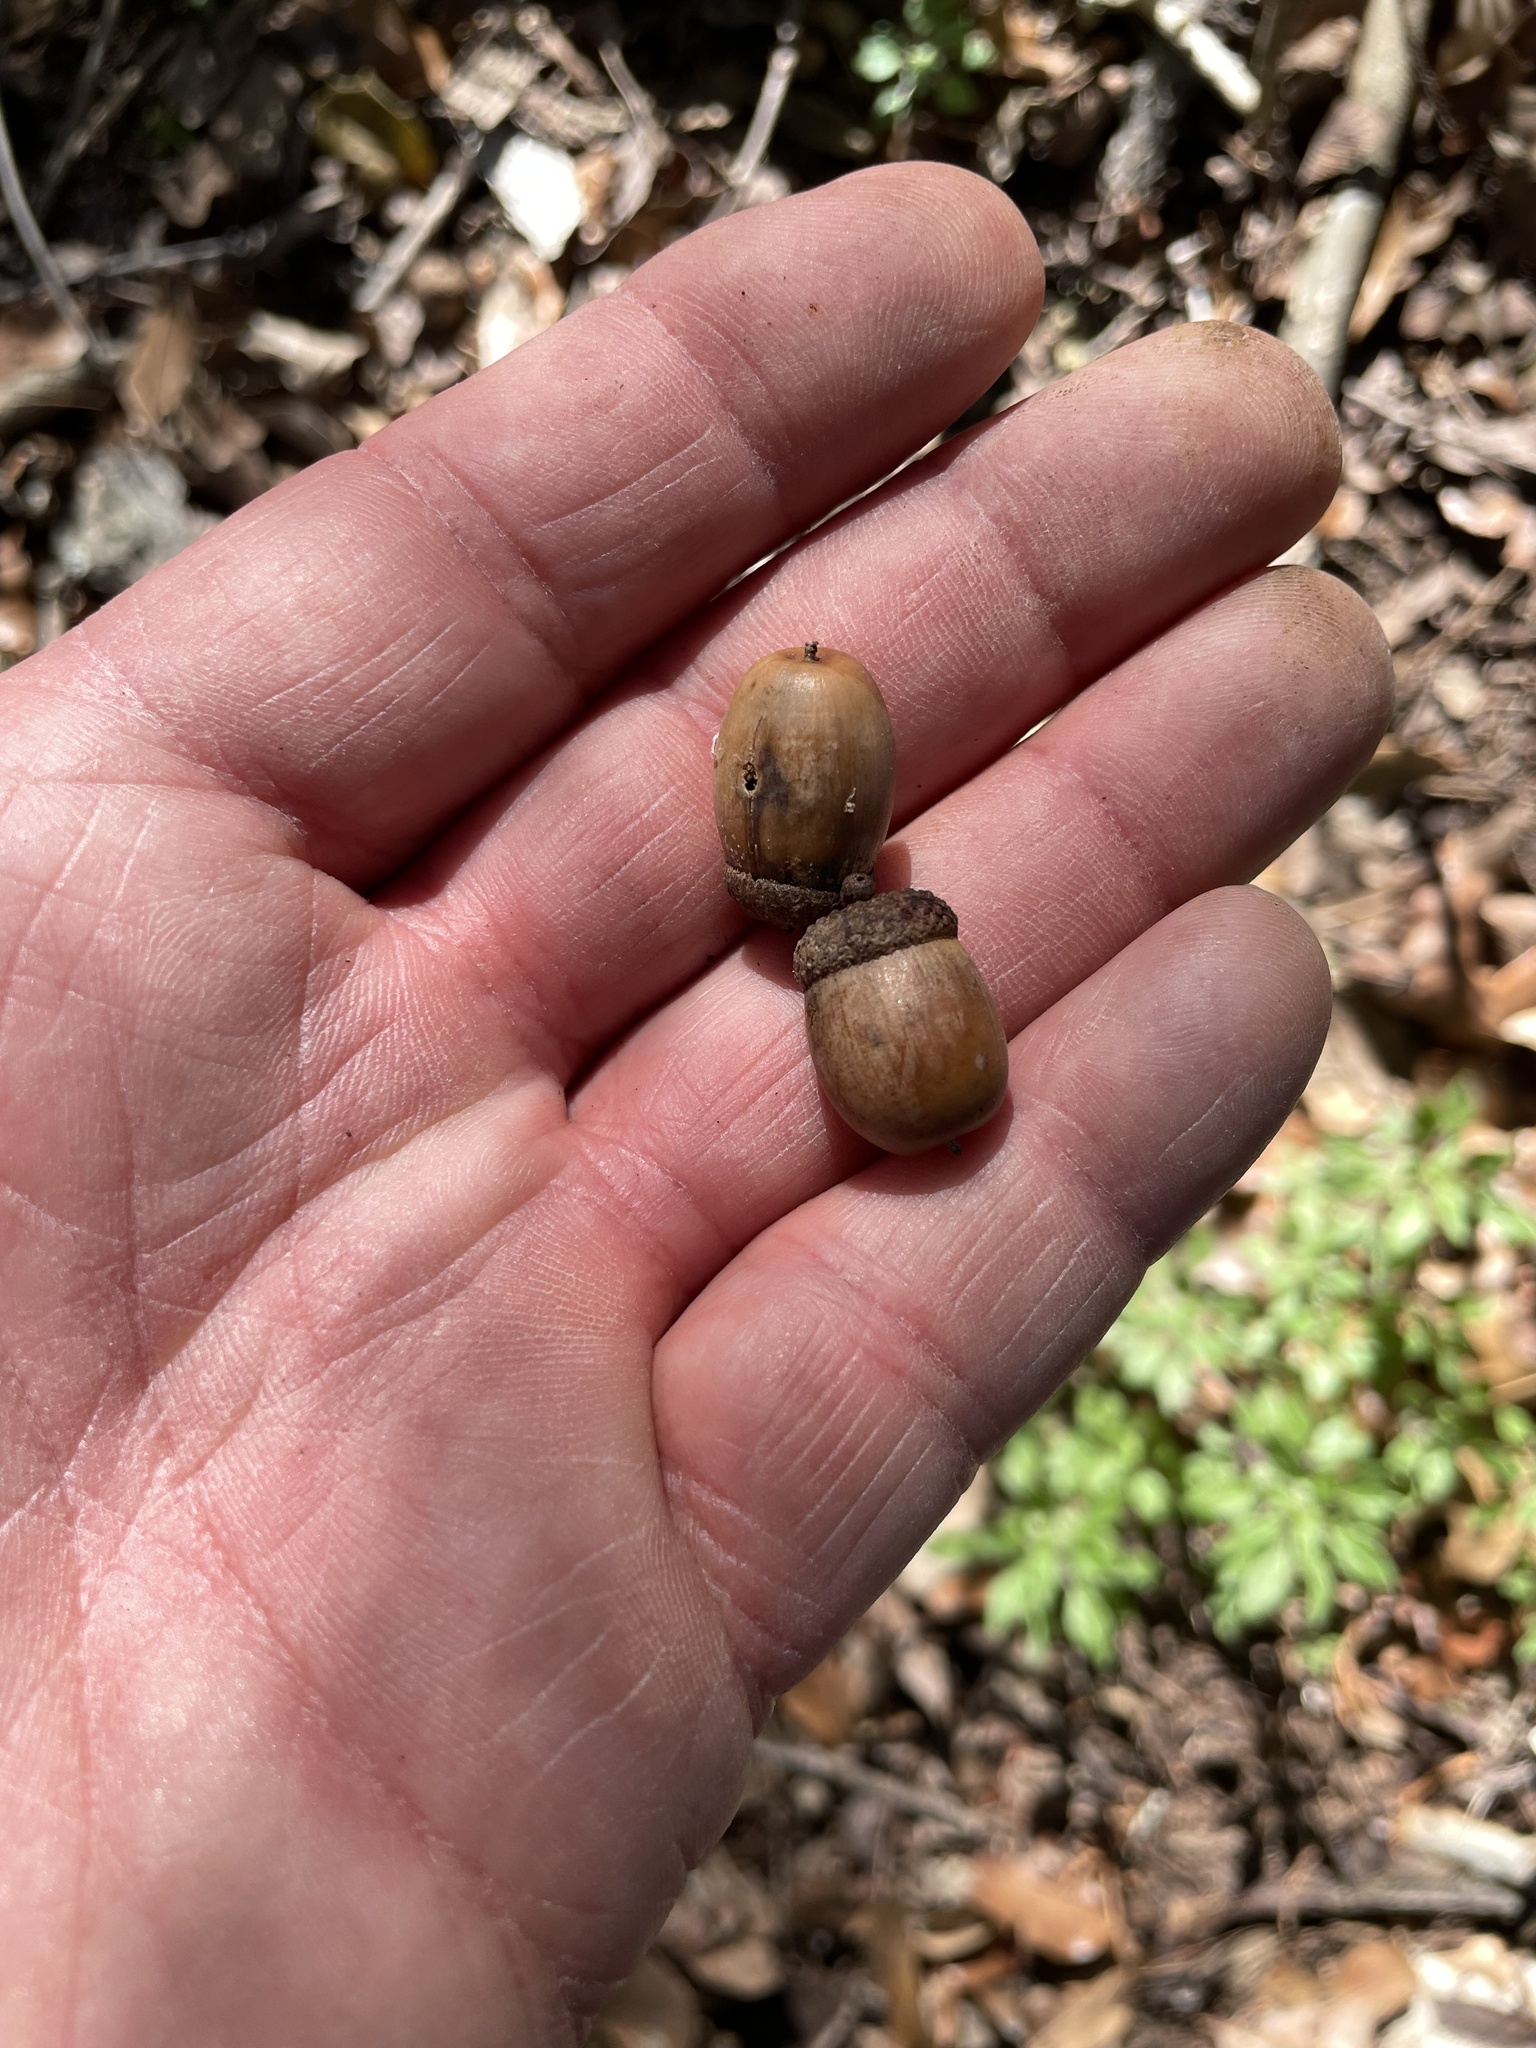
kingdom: Plantae
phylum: Tracheophyta
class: Magnoliopsida
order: Fagales
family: Fagaceae
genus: Quercus
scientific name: Quercus sinuata
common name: Durand oak
